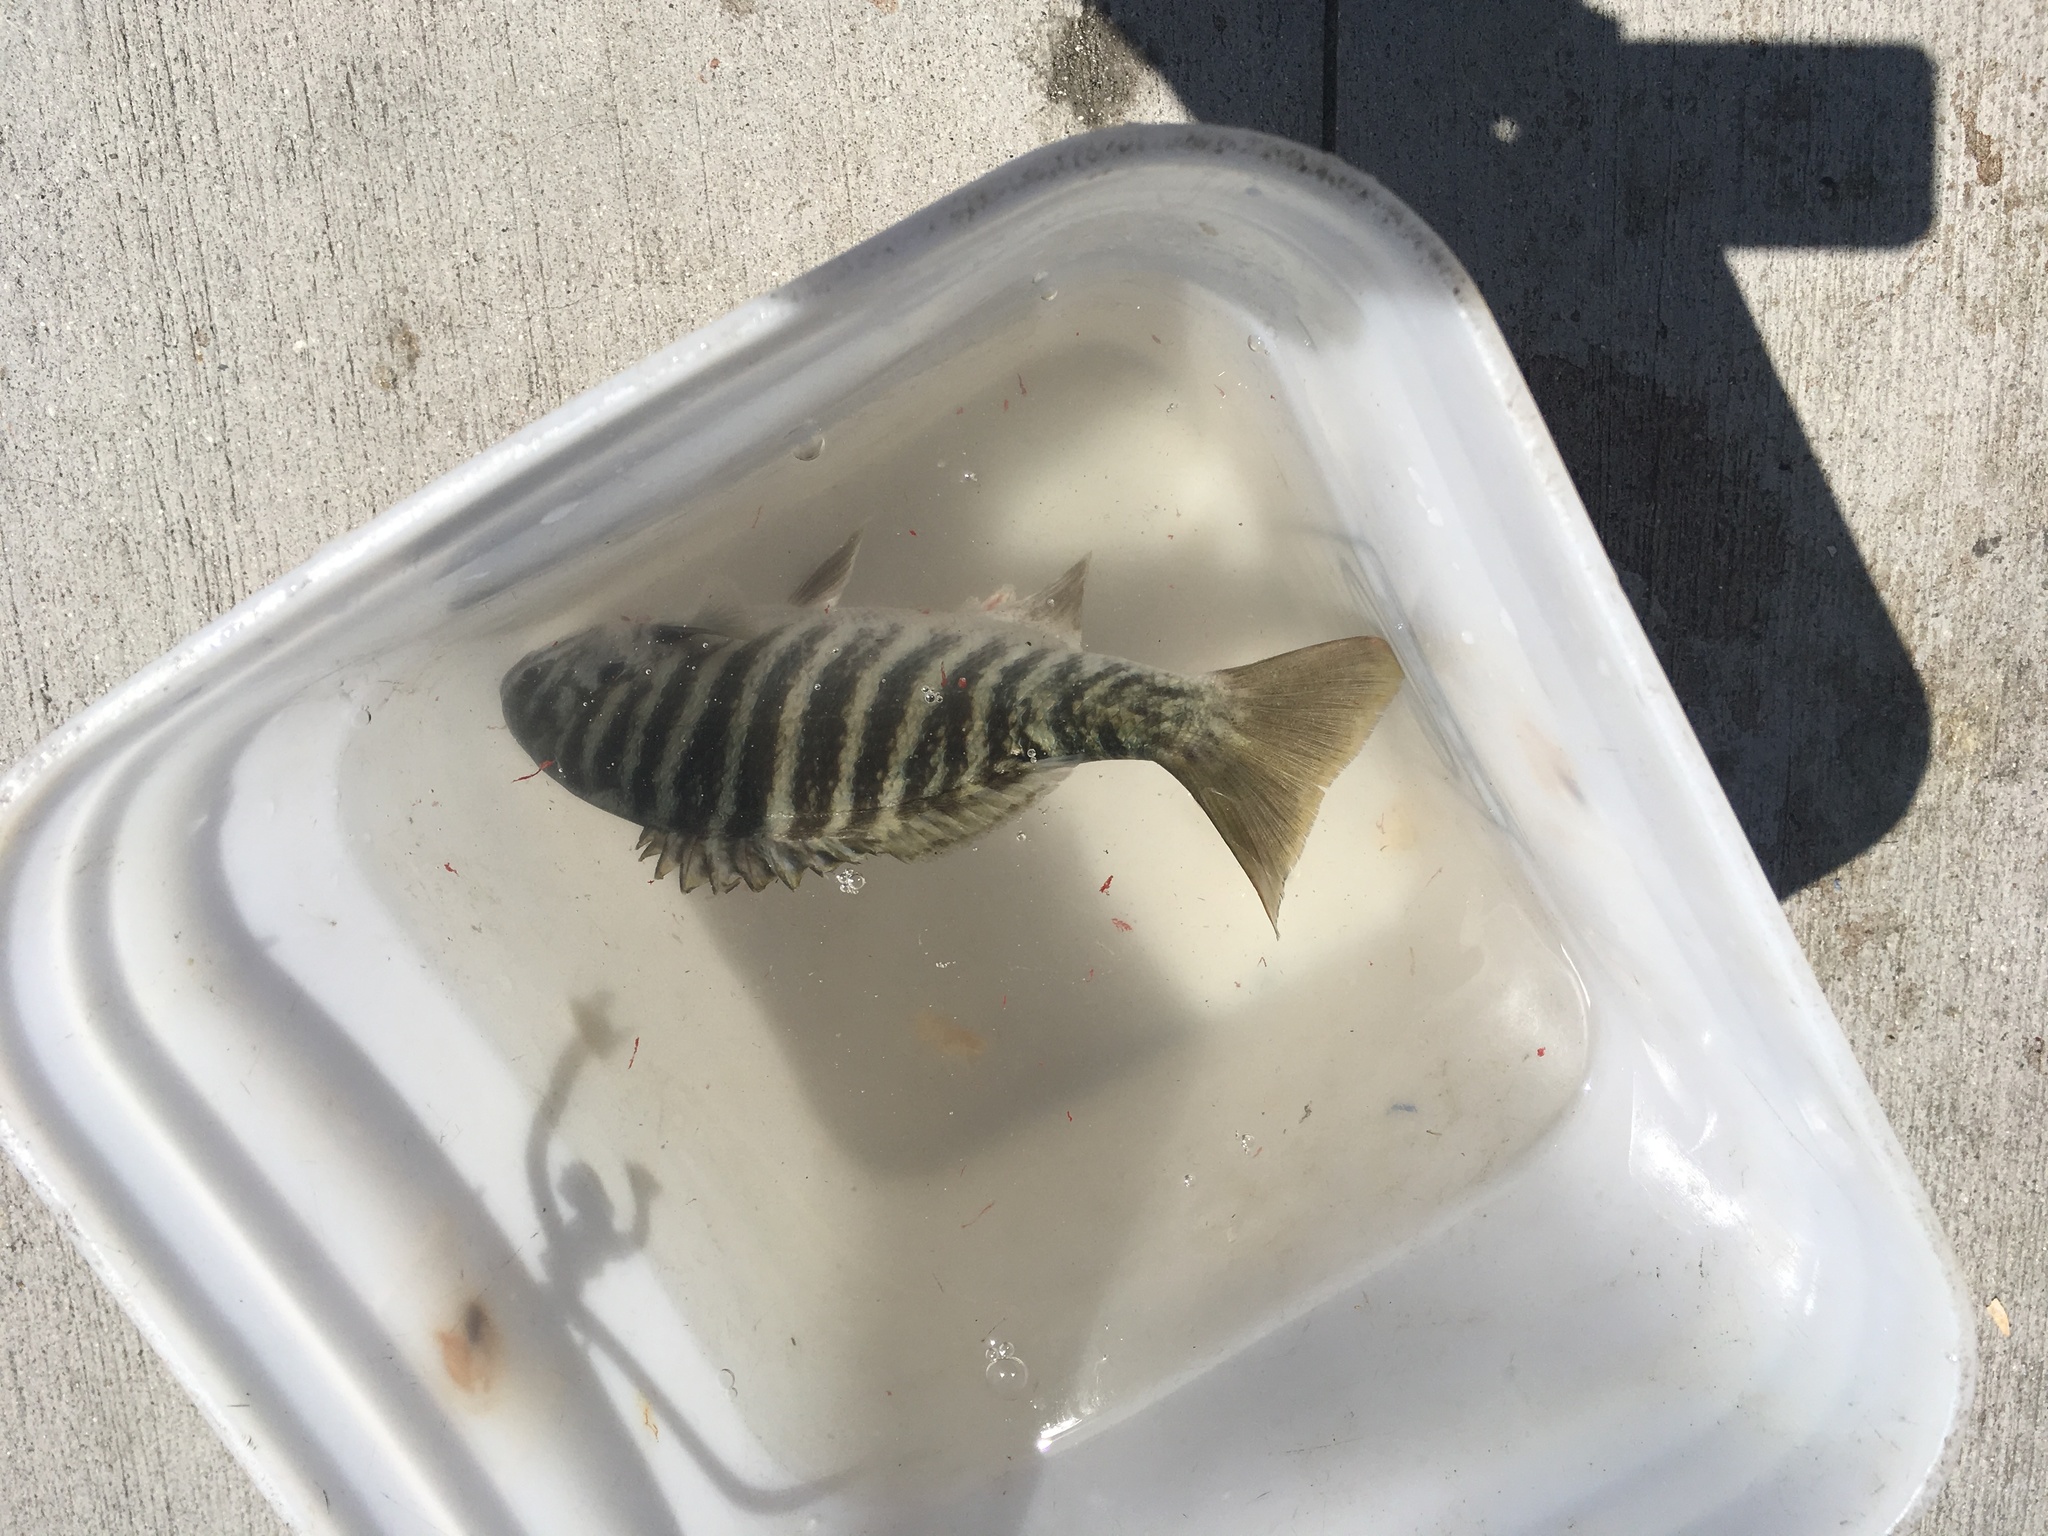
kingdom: Animalia
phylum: Chordata
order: Perciformes
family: Kyphosidae
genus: Kyphosus
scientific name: Kyphosus azureus
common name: Perch
